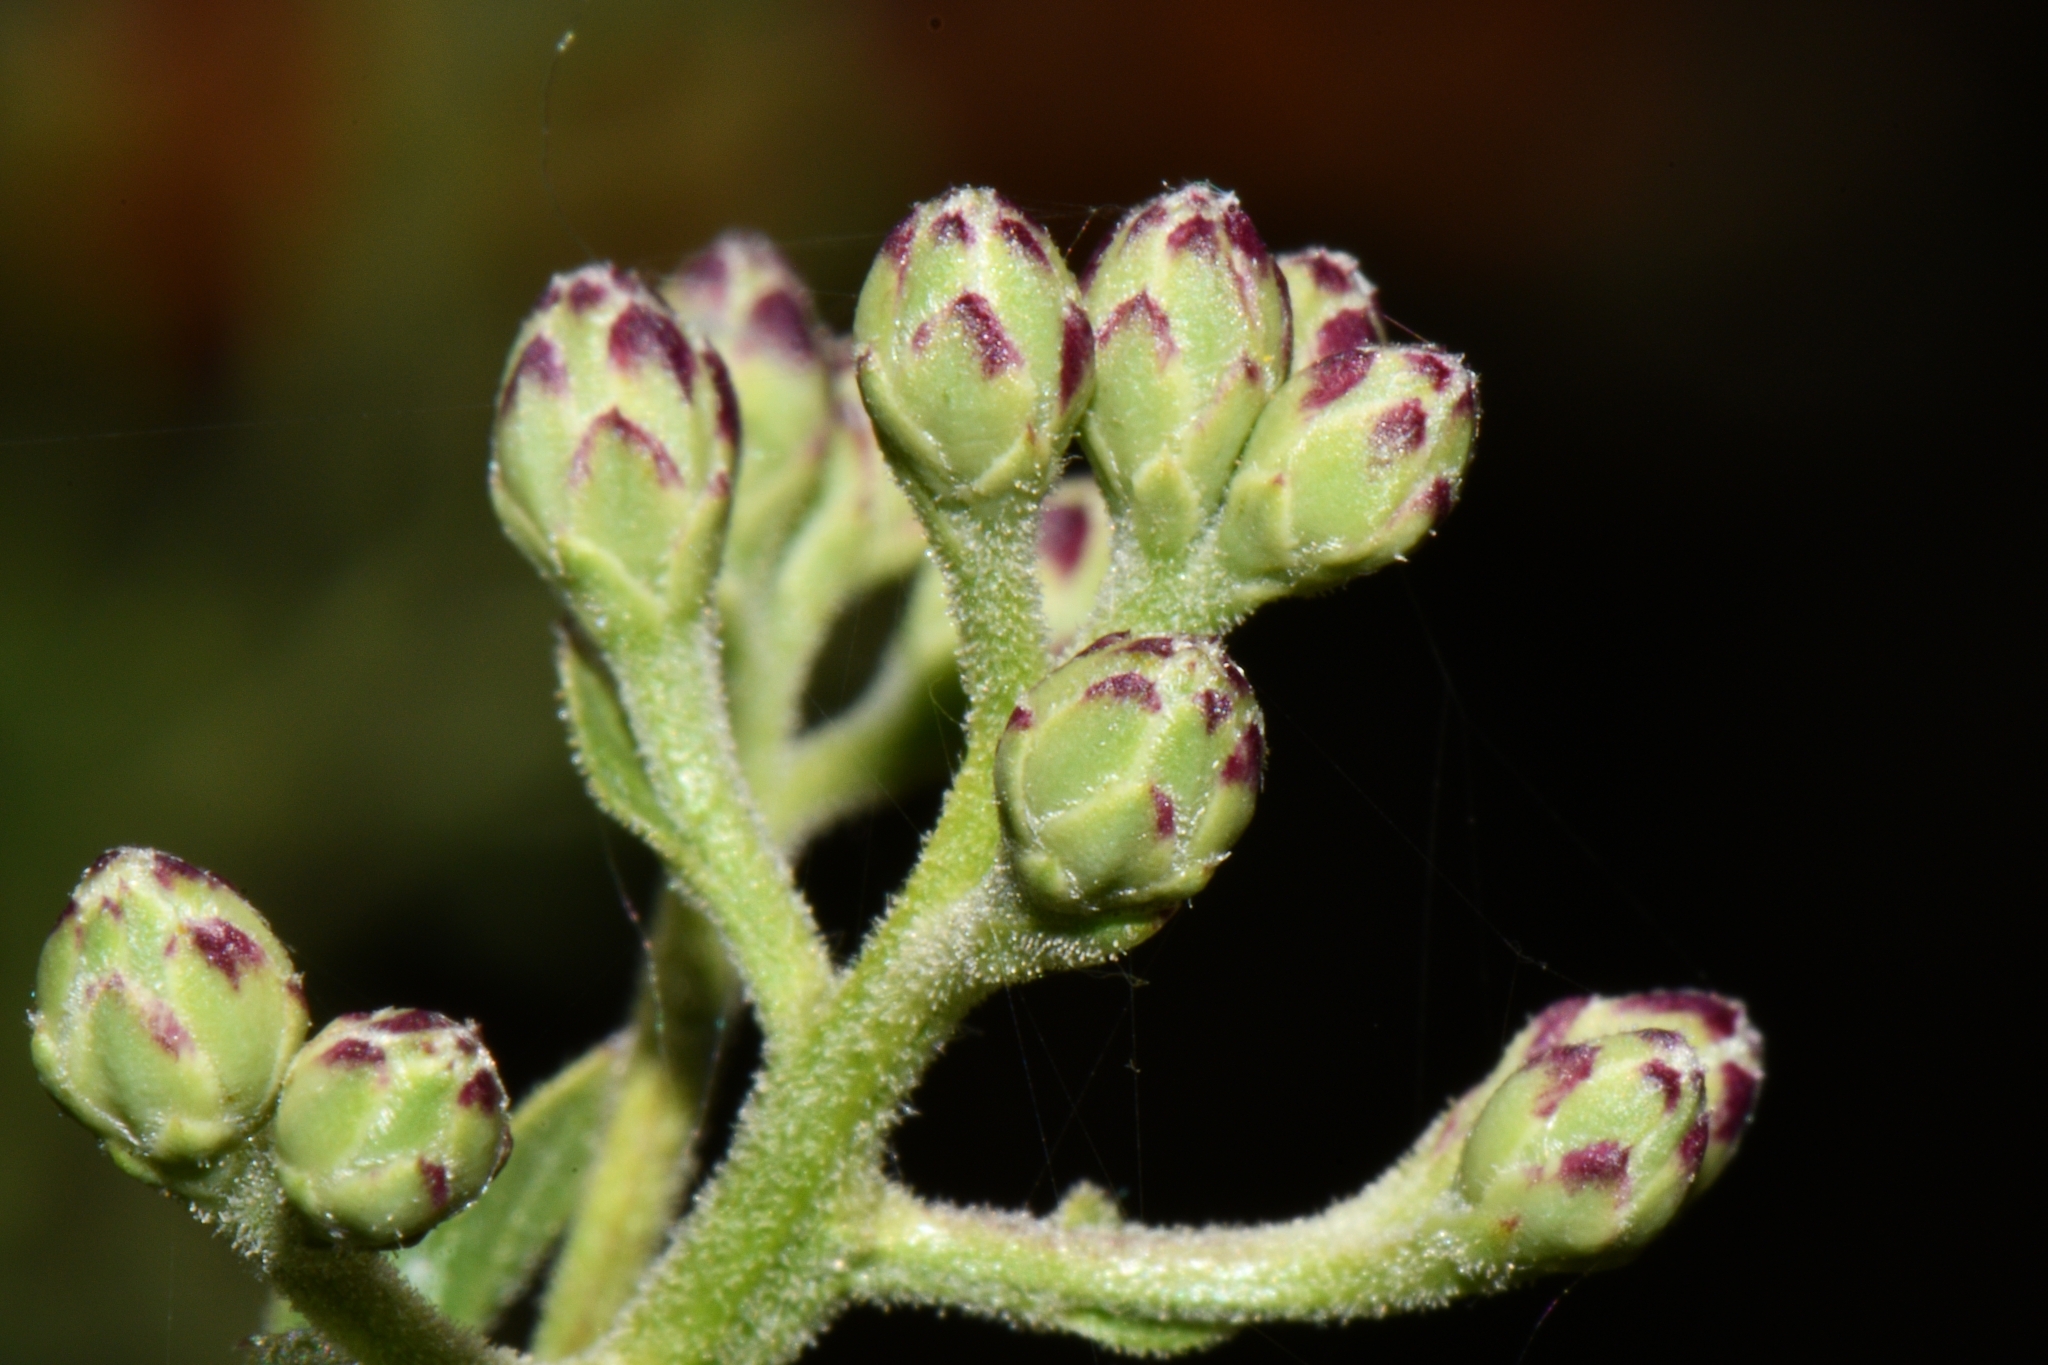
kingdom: Plantae
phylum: Tracheophyta
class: Magnoliopsida
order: Asterales
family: Asteraceae
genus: Acourtia
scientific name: Acourtia wrightii
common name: Brownfoot
